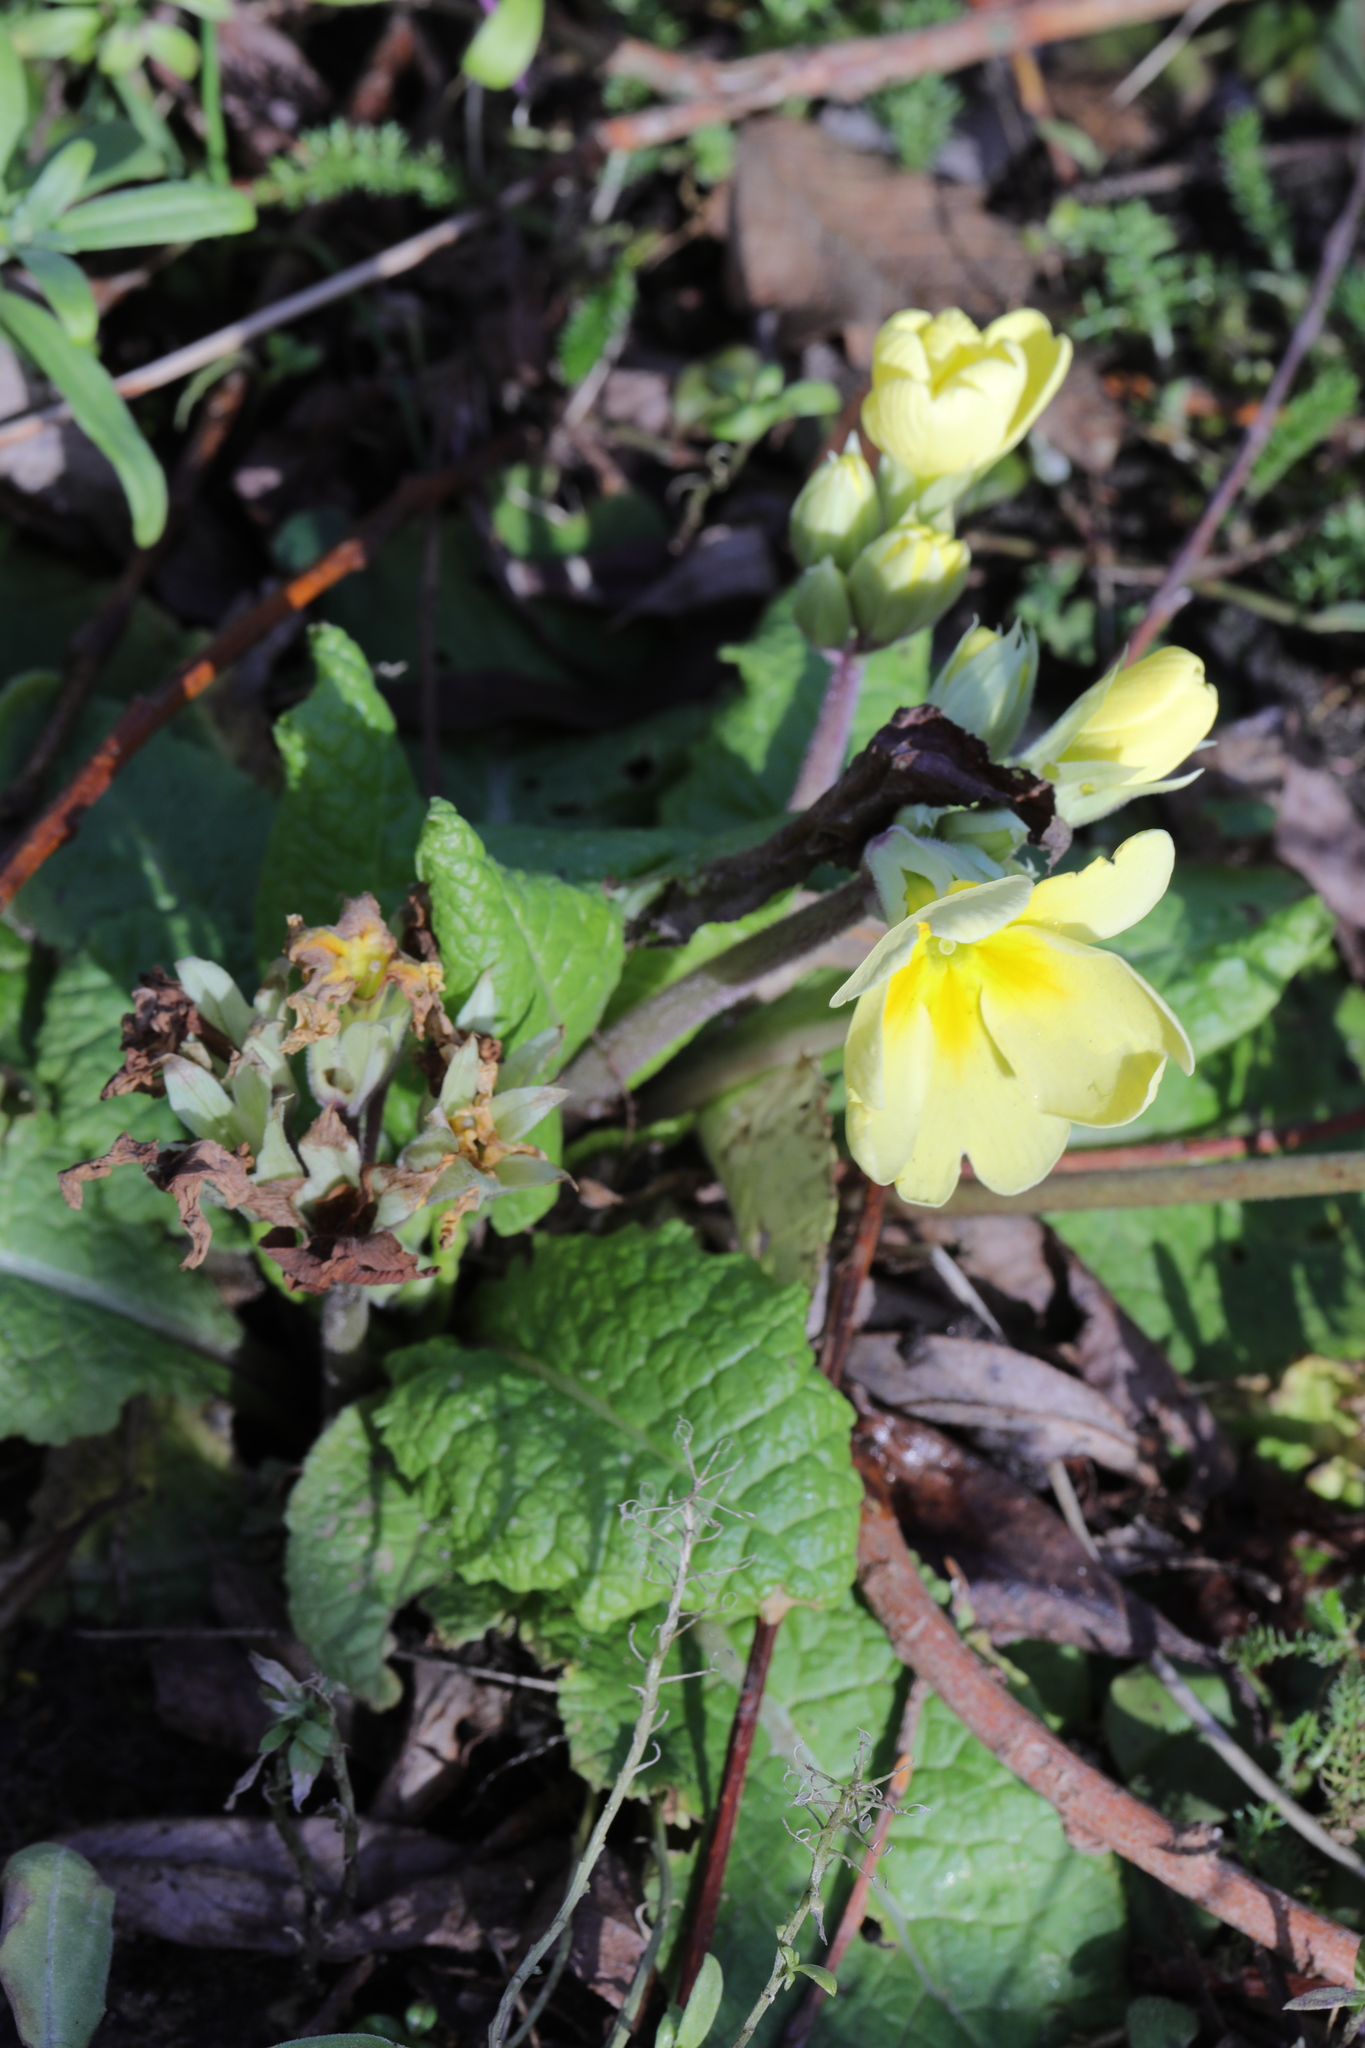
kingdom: Plantae
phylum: Tracheophyta
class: Magnoliopsida
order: Ericales
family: Primulaceae
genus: Primula
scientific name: Primula polyantha
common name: False oxlip
